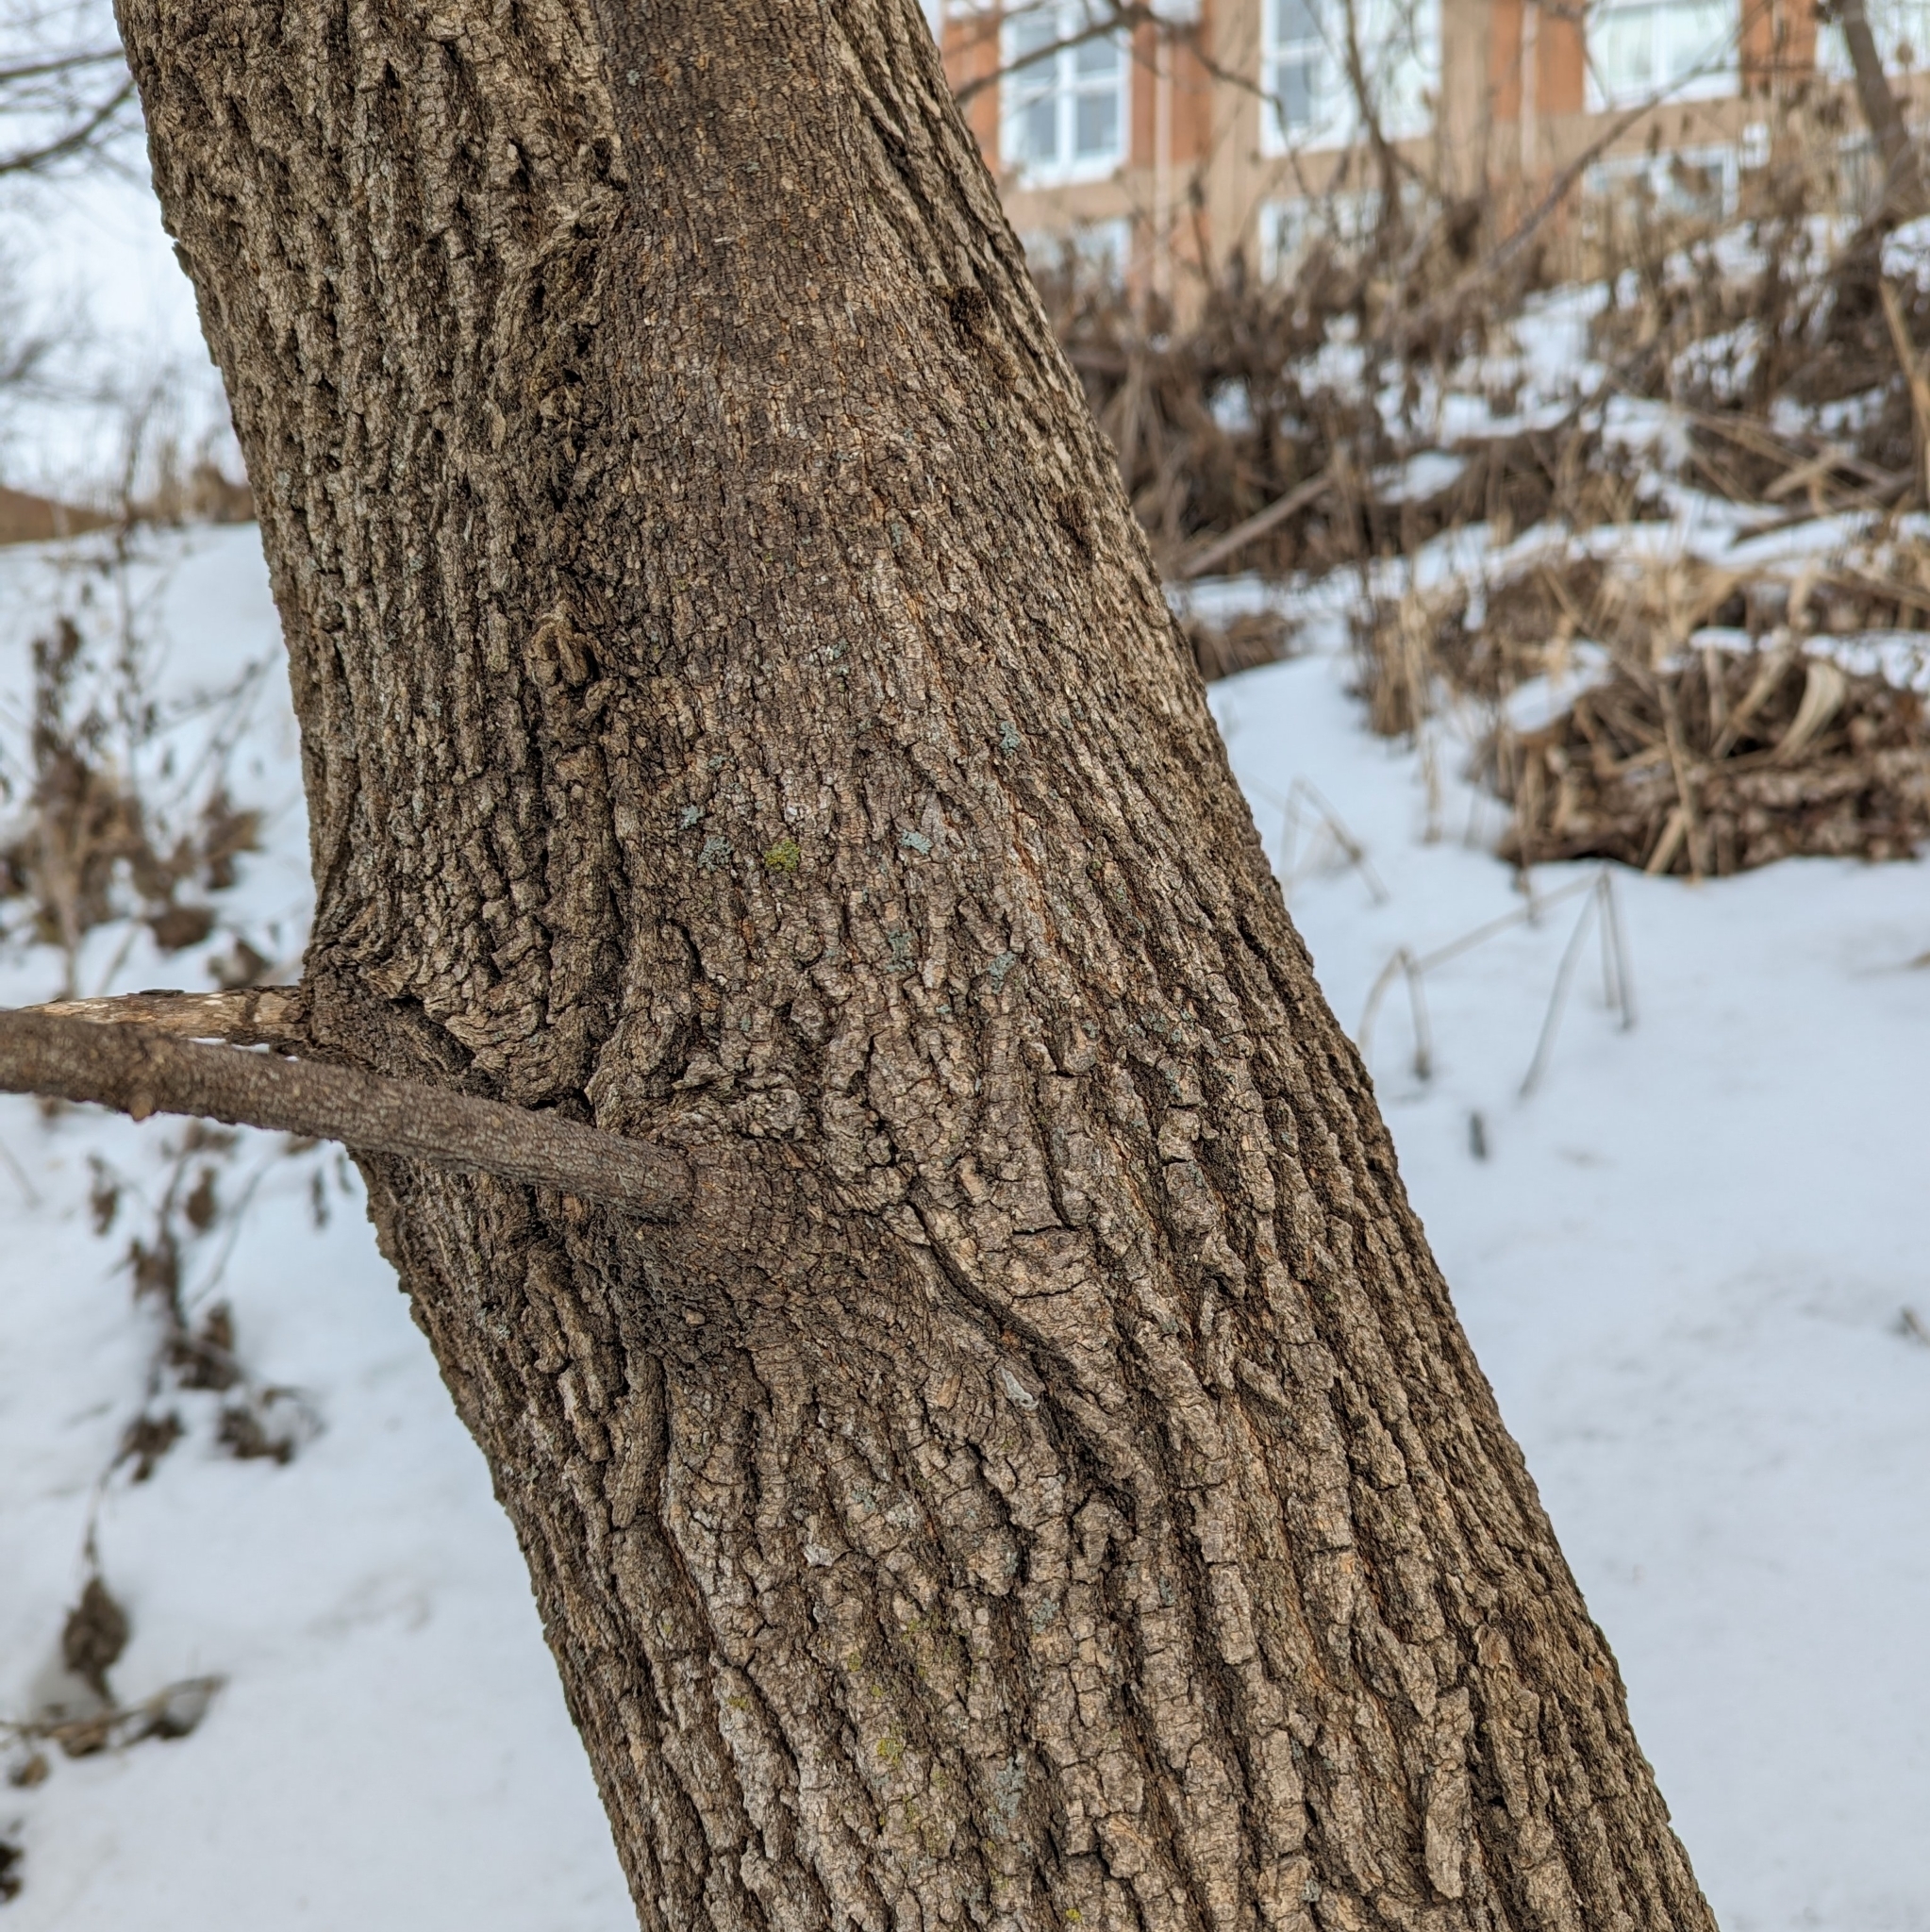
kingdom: Plantae
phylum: Tracheophyta
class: Magnoliopsida
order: Sapindales
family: Sapindaceae
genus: Acer
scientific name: Acer negundo
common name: Ashleaf maple
